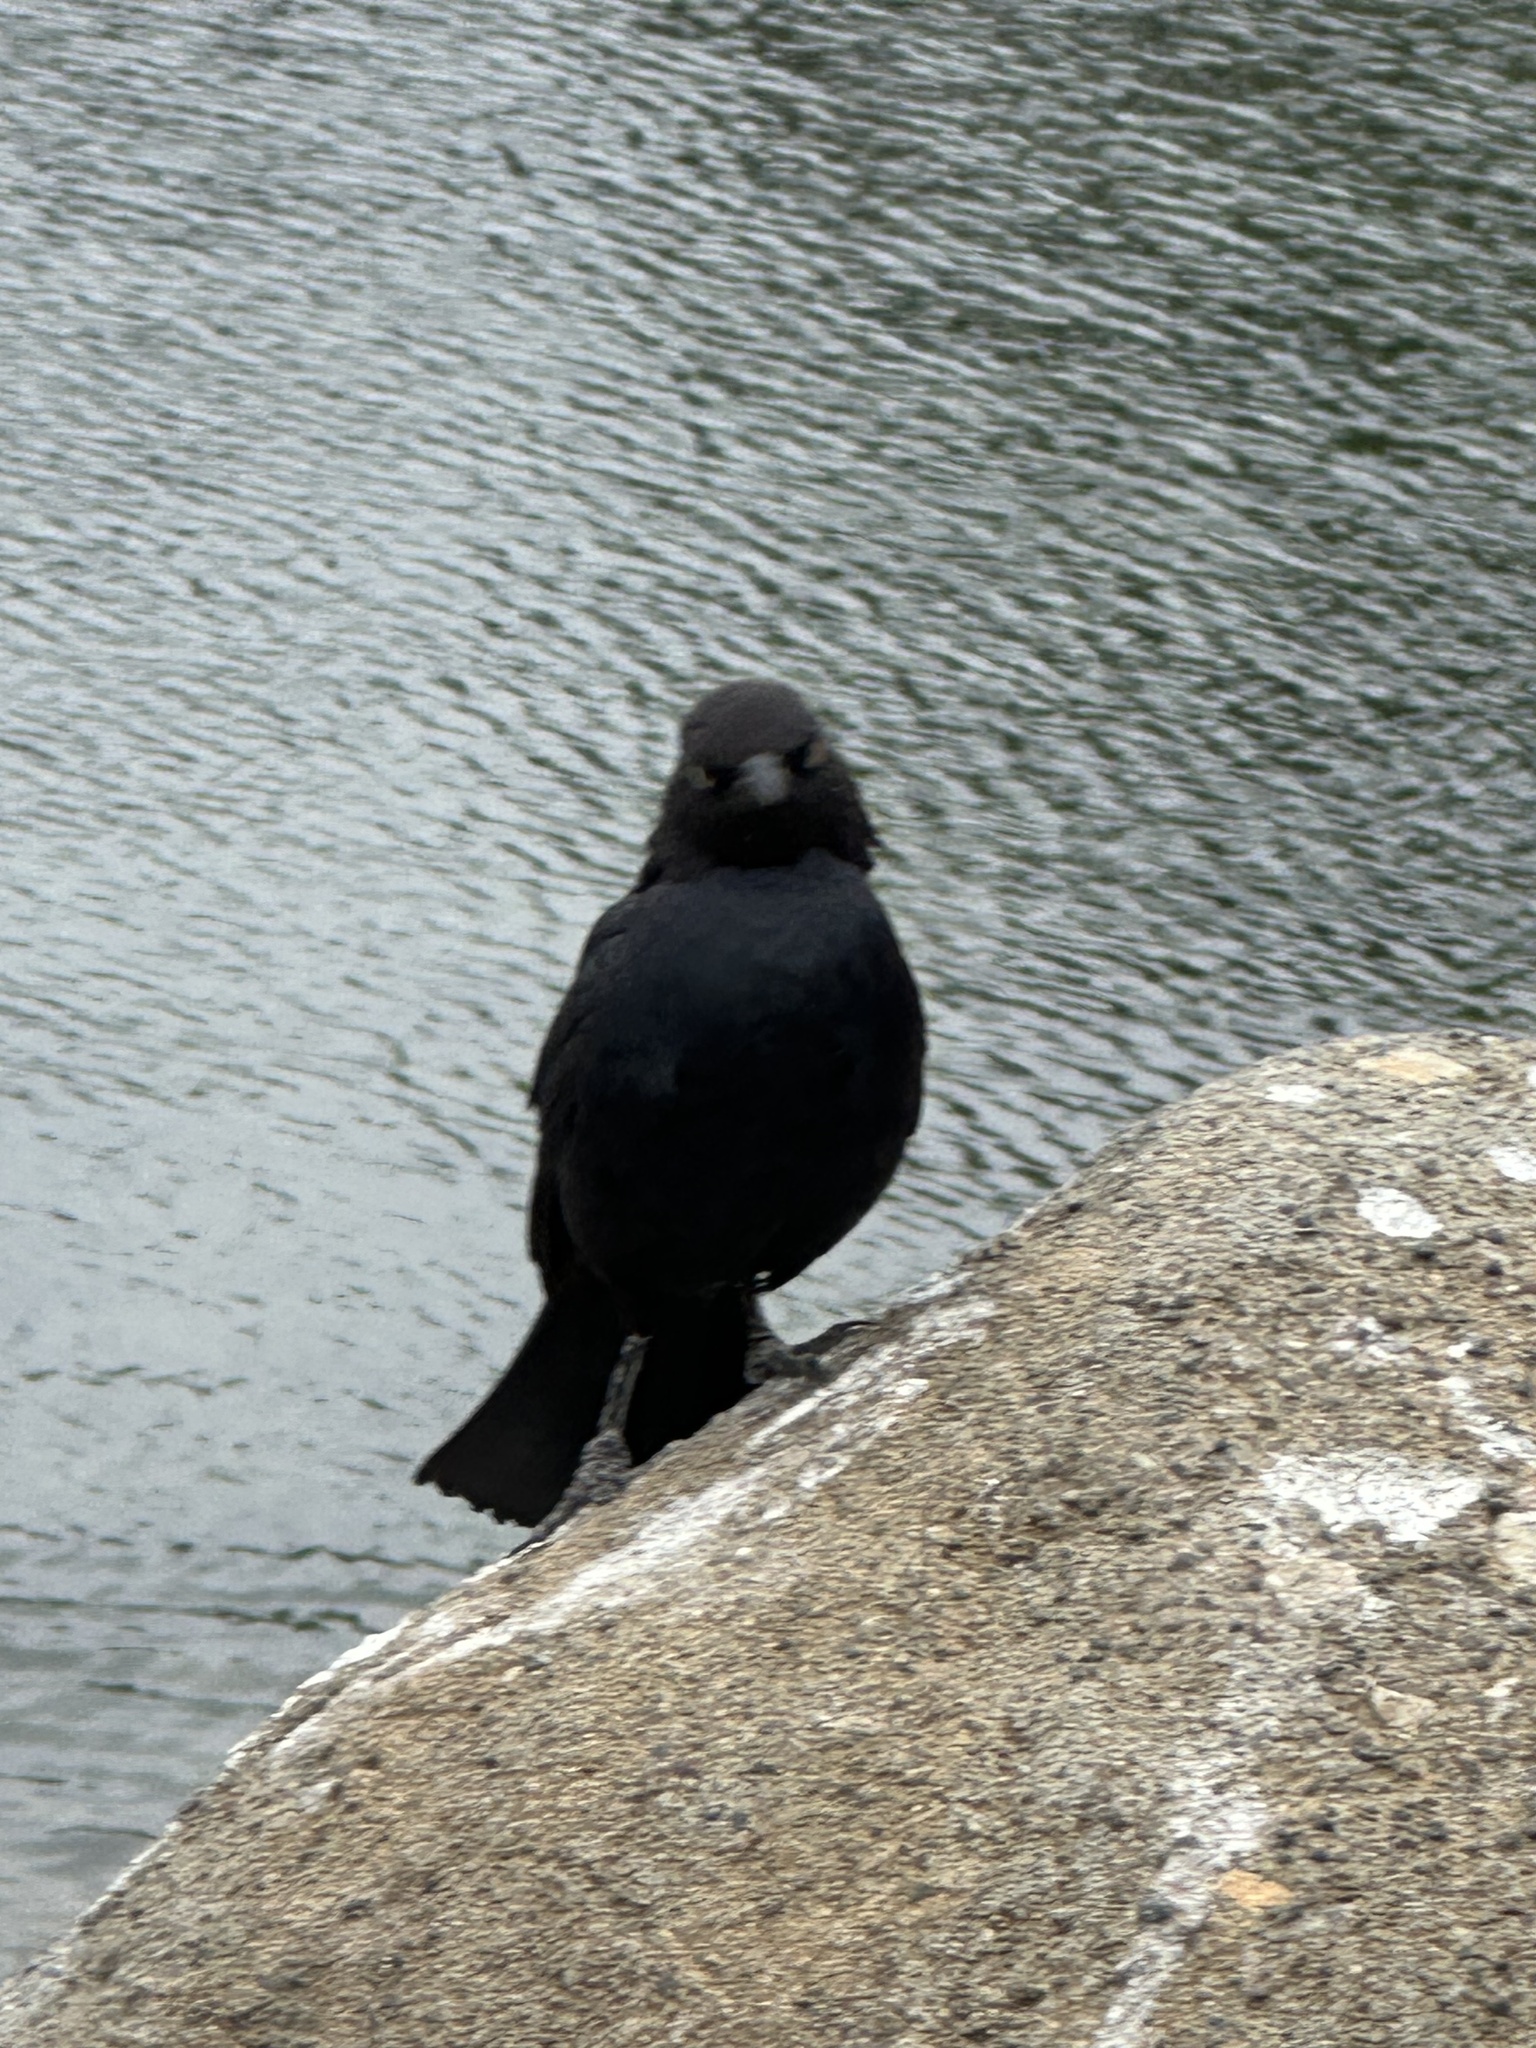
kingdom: Animalia
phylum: Chordata
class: Aves
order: Passeriformes
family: Icteridae
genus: Euphagus
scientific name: Euphagus cyanocephalus
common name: Brewer's blackbird
